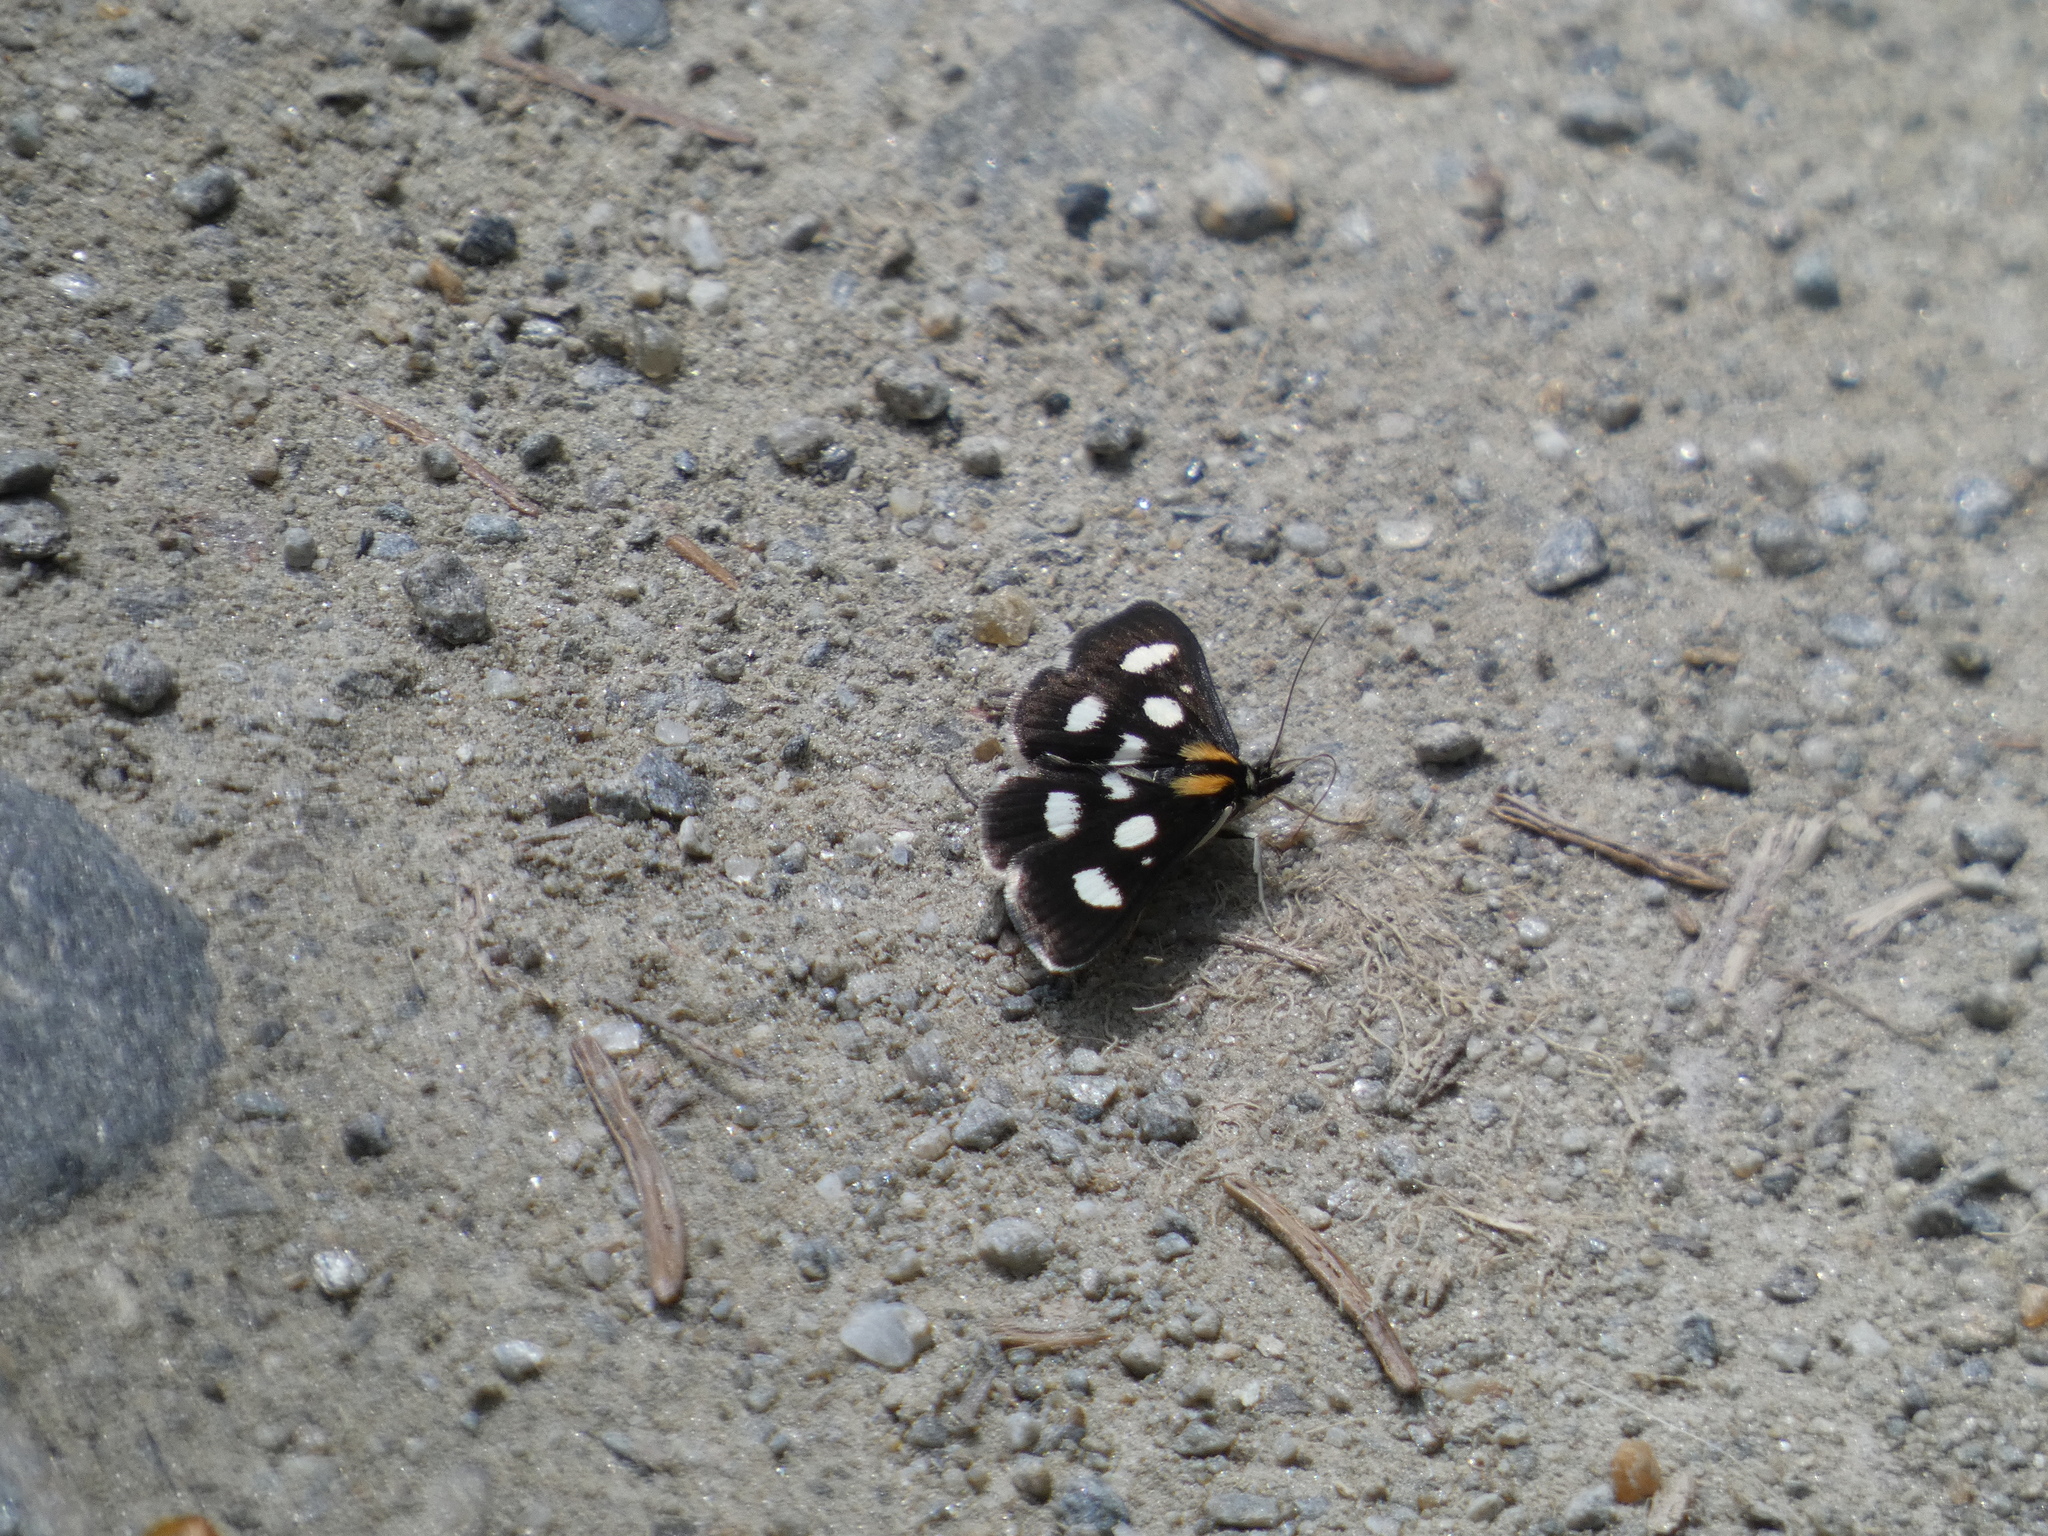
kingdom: Animalia
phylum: Arthropoda
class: Insecta
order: Lepidoptera
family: Crambidae
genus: Anania
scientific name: Anania funebris
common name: White-spotted sable moth
